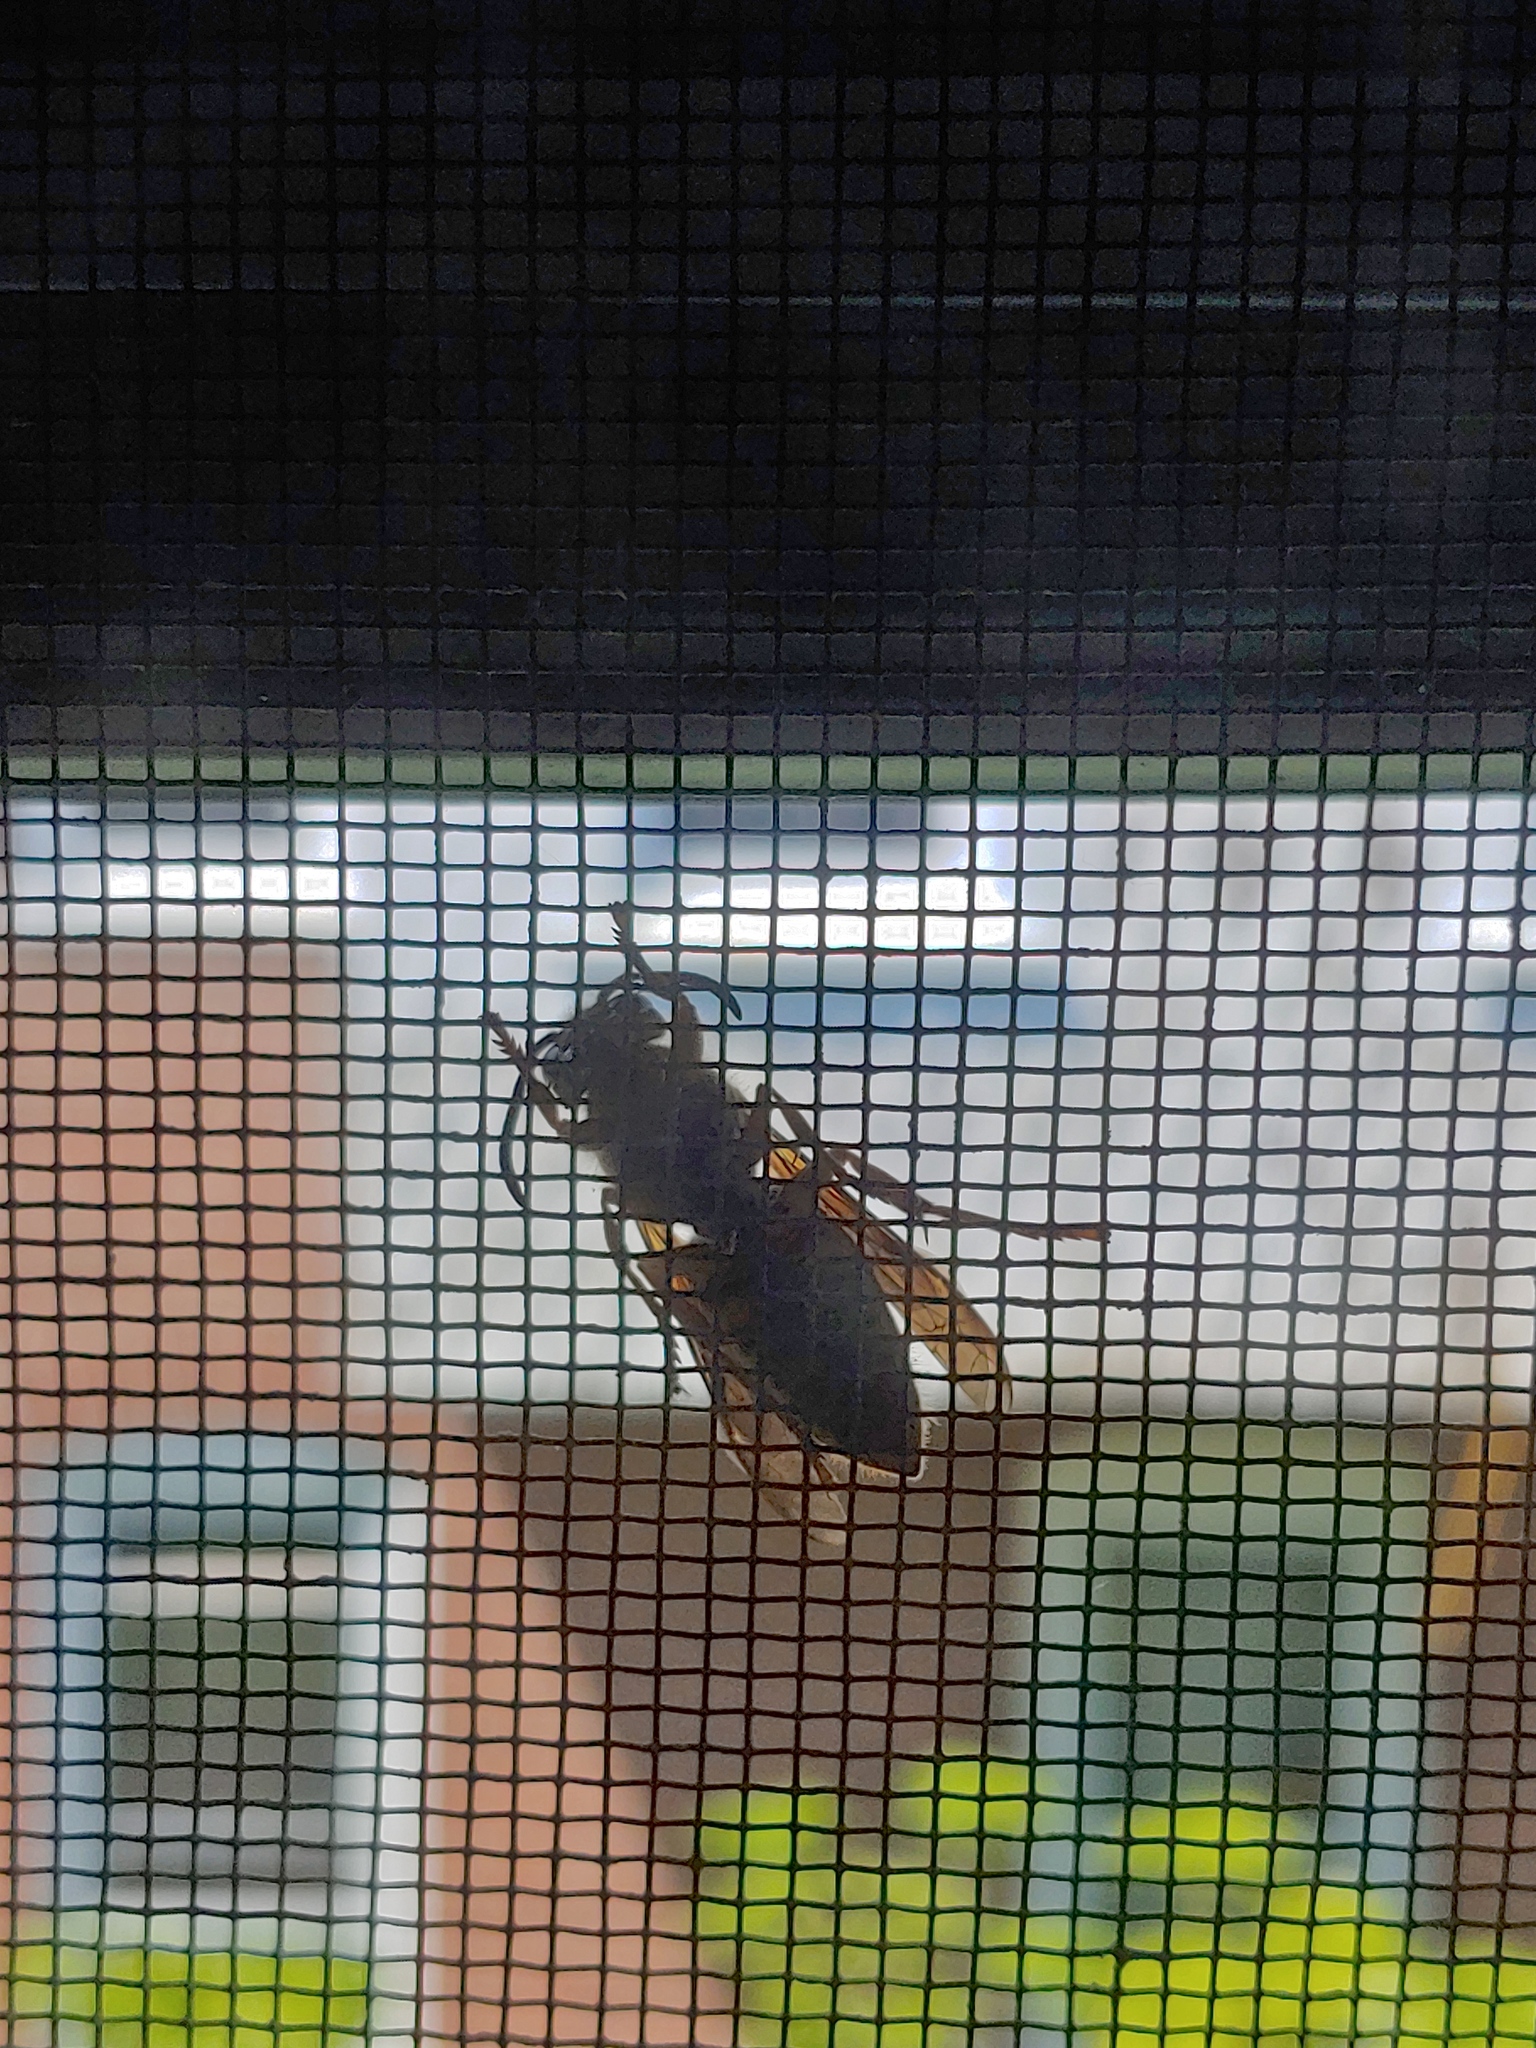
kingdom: Animalia
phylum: Arthropoda
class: Insecta
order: Hymenoptera
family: Vespidae
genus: Vespula
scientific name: Vespula
